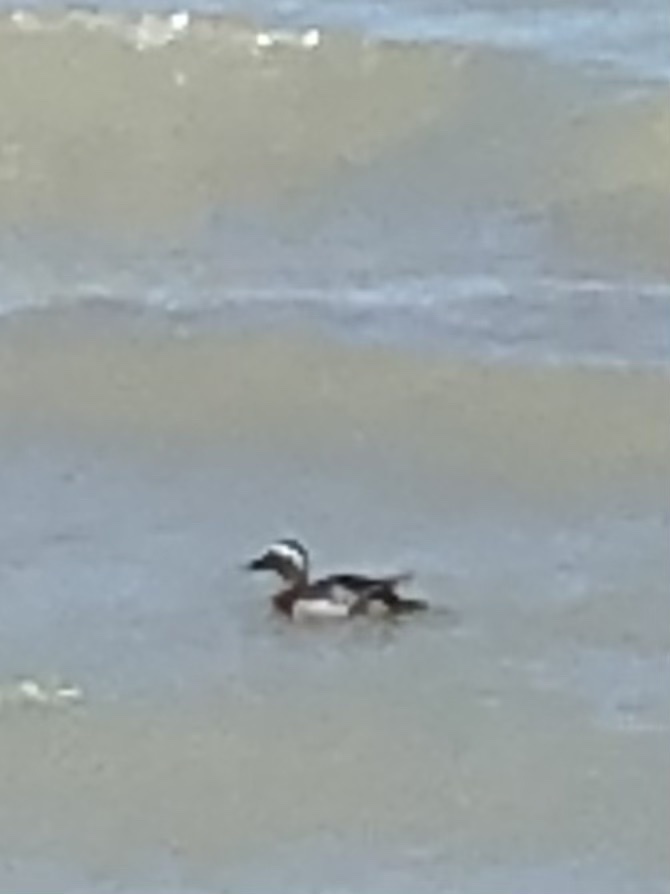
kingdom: Animalia
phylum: Chordata
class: Aves
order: Anseriformes
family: Anatidae
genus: Spatula
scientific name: Spatula querquedula
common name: Garganey
